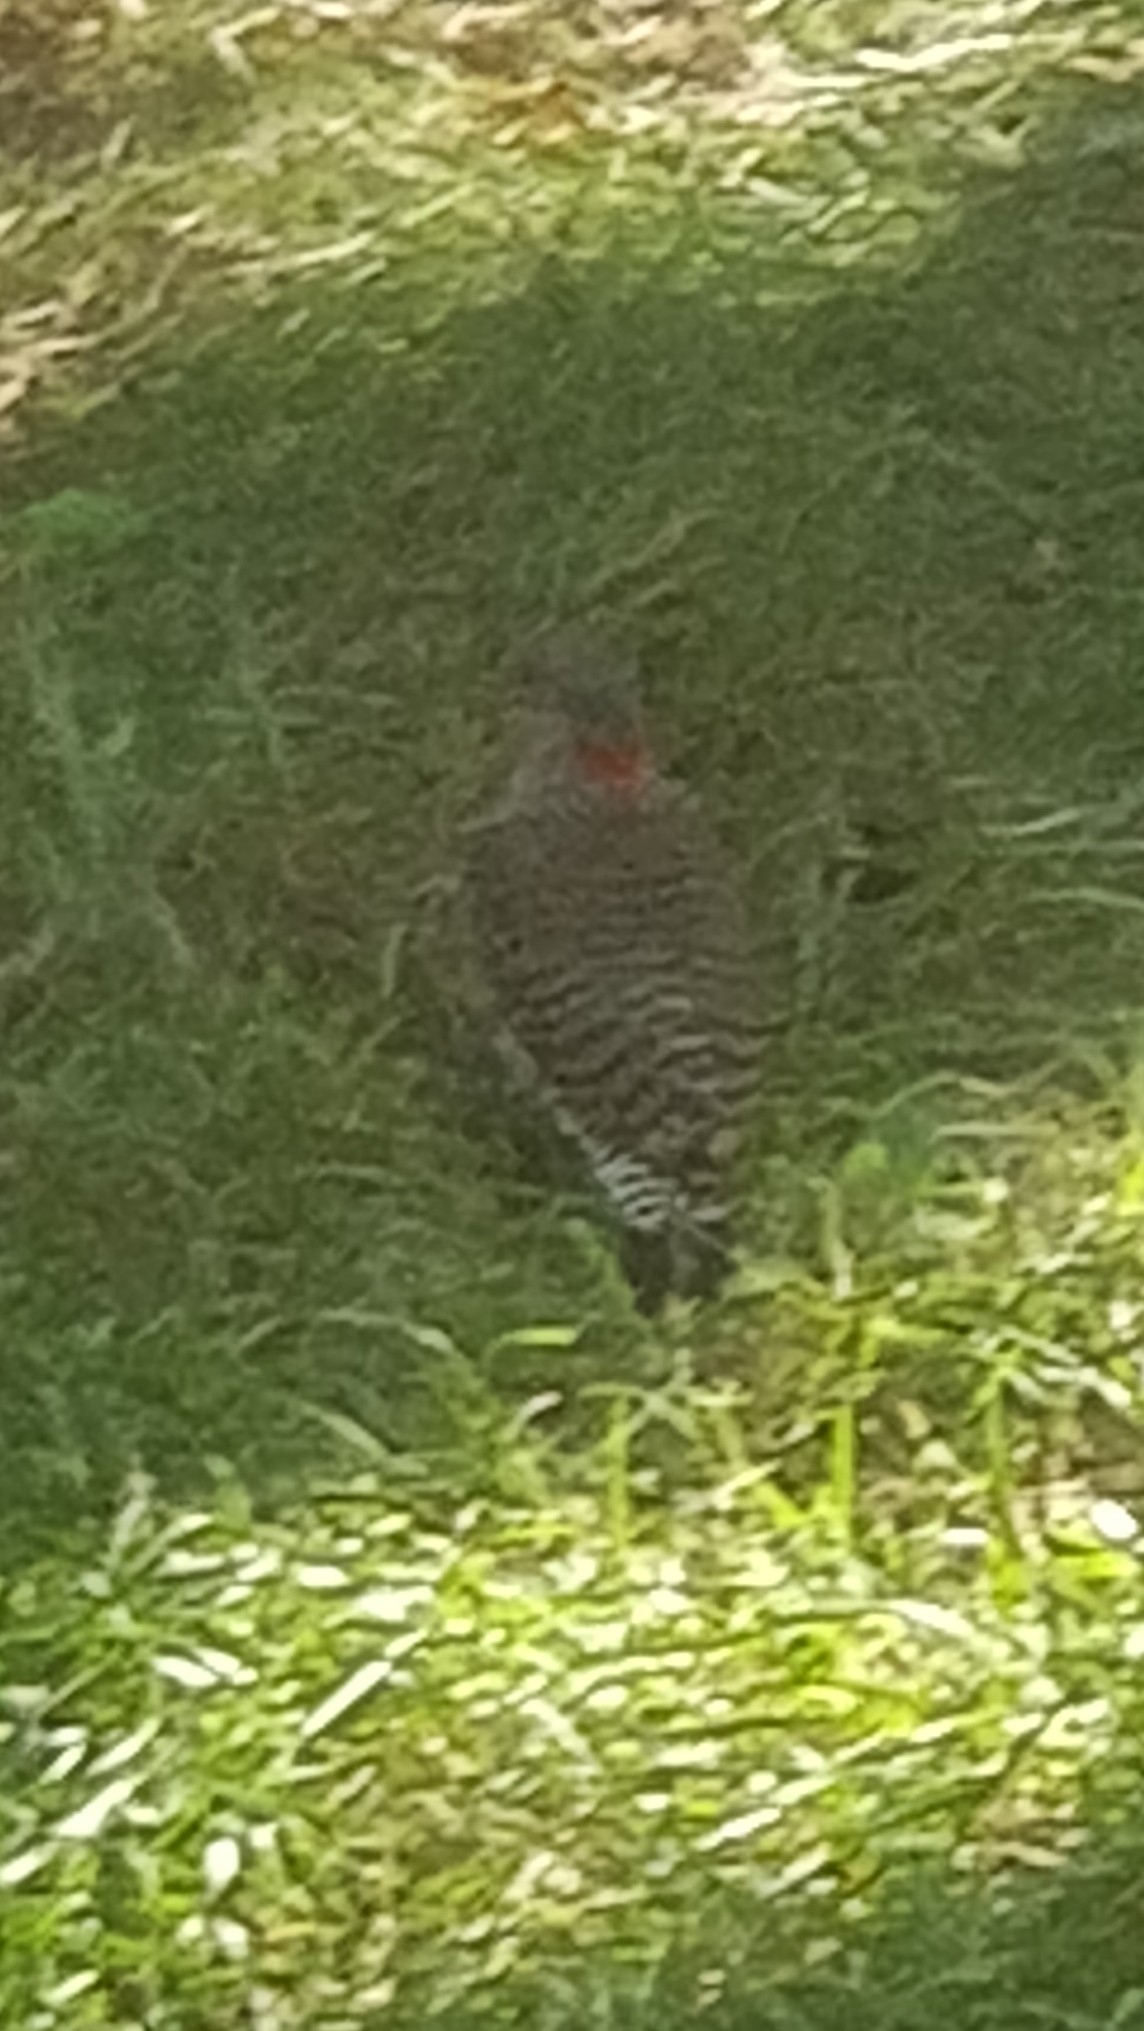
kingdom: Animalia
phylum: Chordata
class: Aves
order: Piciformes
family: Picidae
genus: Colaptes
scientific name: Colaptes auratus
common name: Northern flicker
